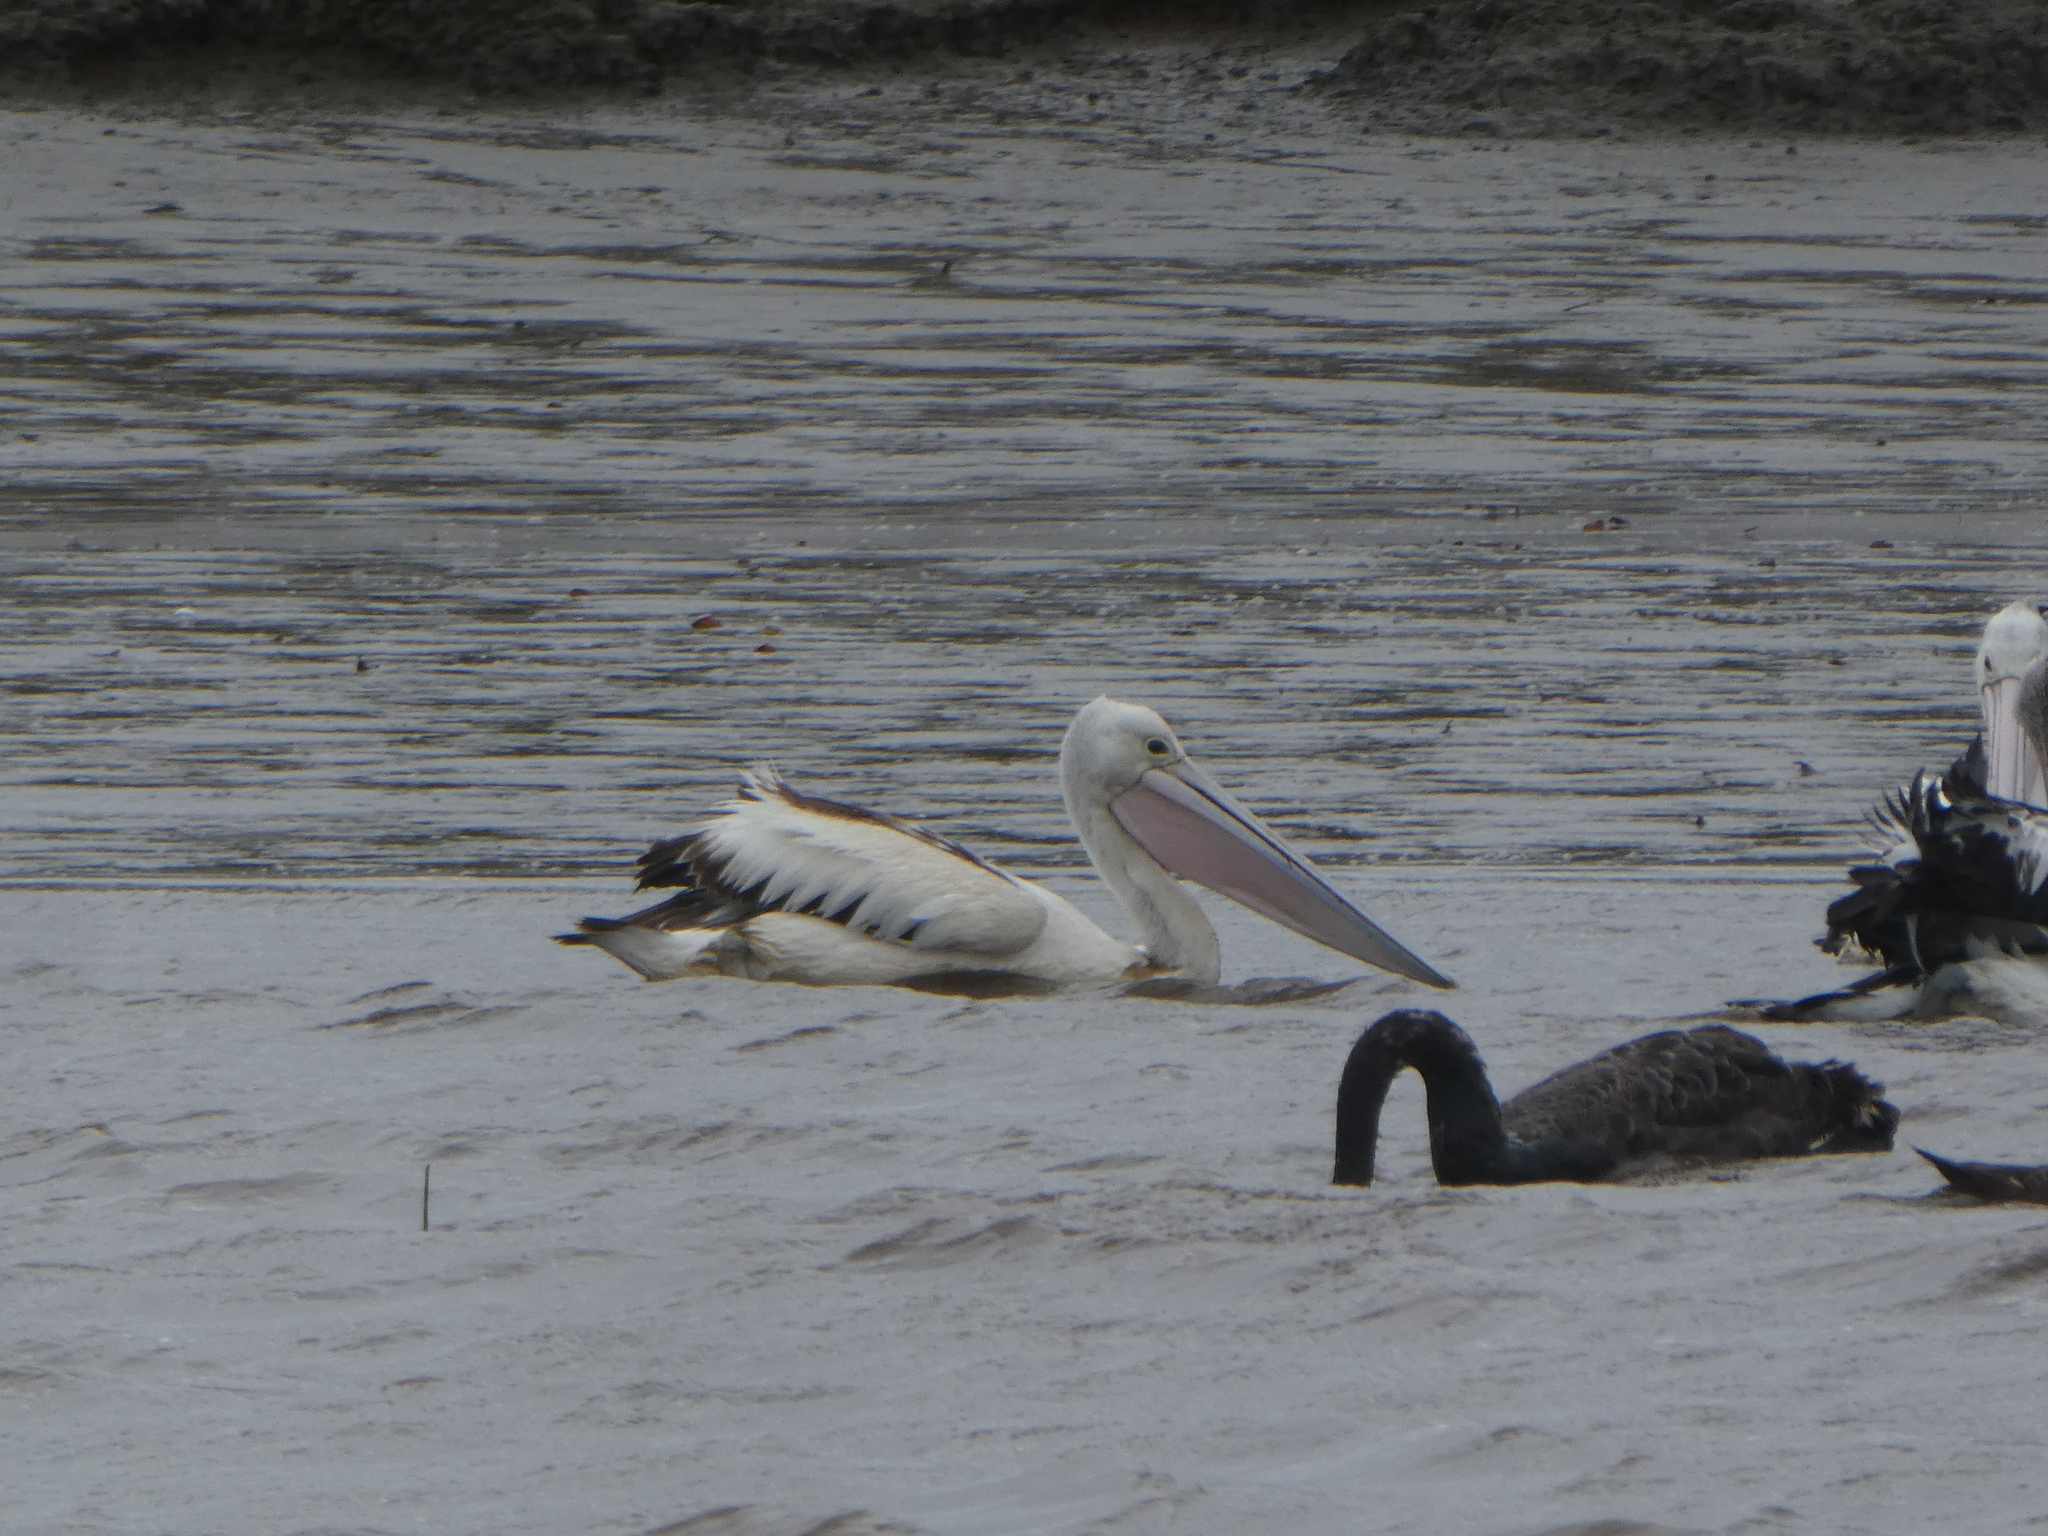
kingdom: Animalia
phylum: Chordata
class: Aves
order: Pelecaniformes
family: Pelecanidae
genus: Pelecanus
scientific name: Pelecanus conspicillatus
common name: Australian pelican
